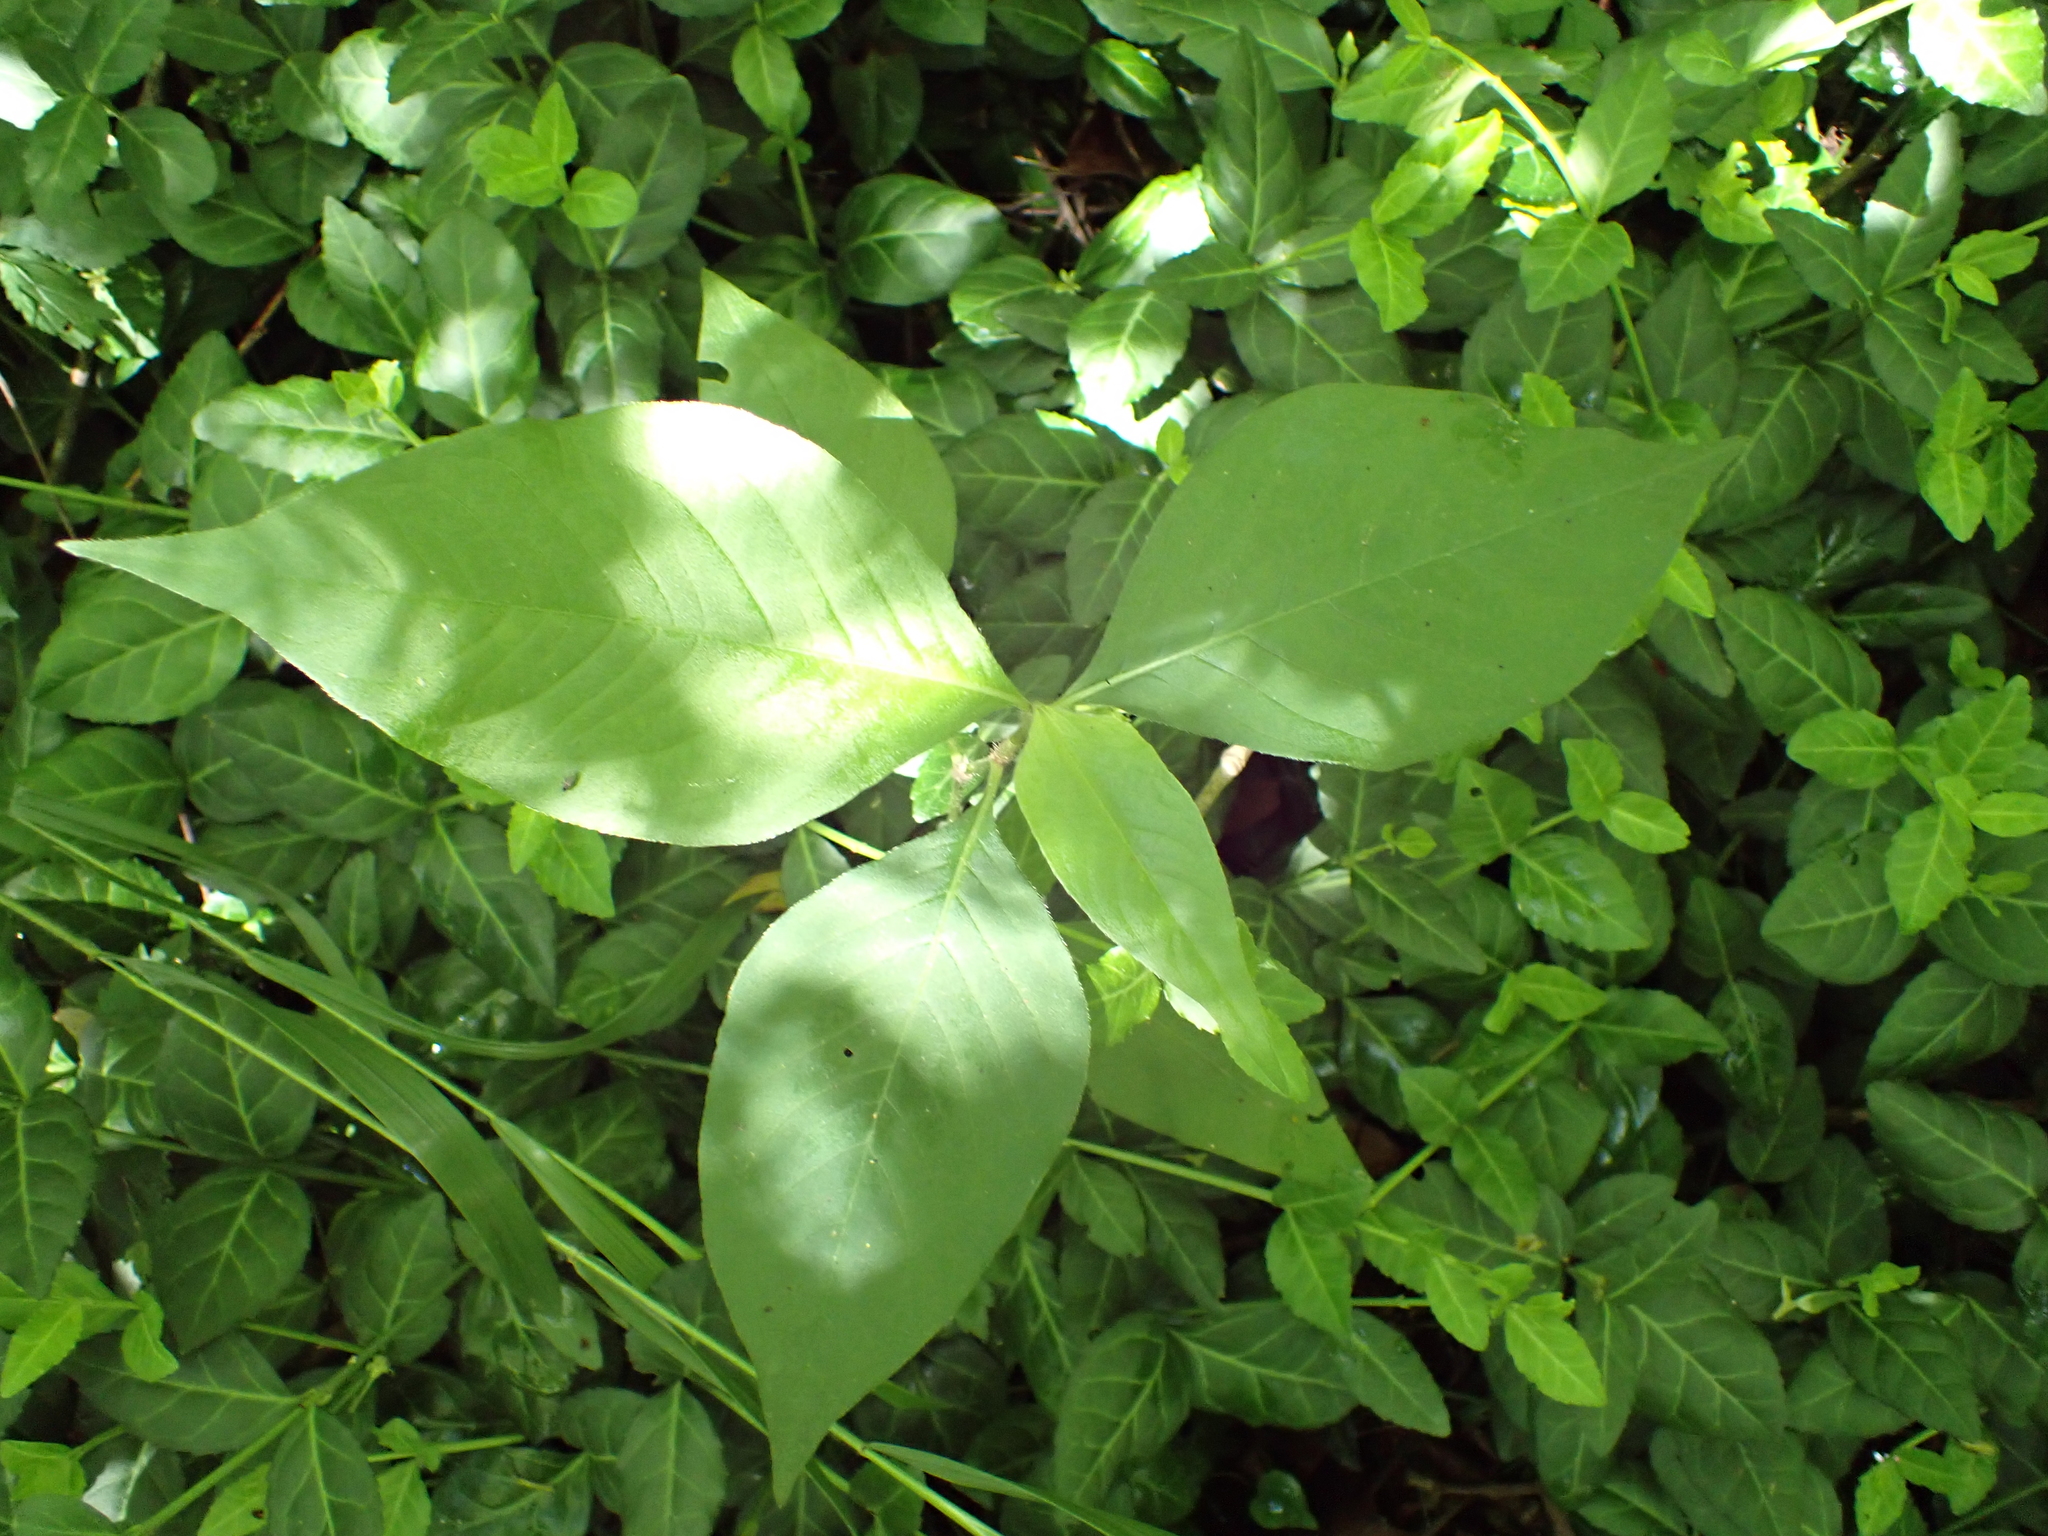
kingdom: Plantae
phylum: Tracheophyta
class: Magnoliopsida
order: Caryophyllales
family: Polygonaceae
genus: Persicaria
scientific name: Persicaria virginiana
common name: Jumpseed
